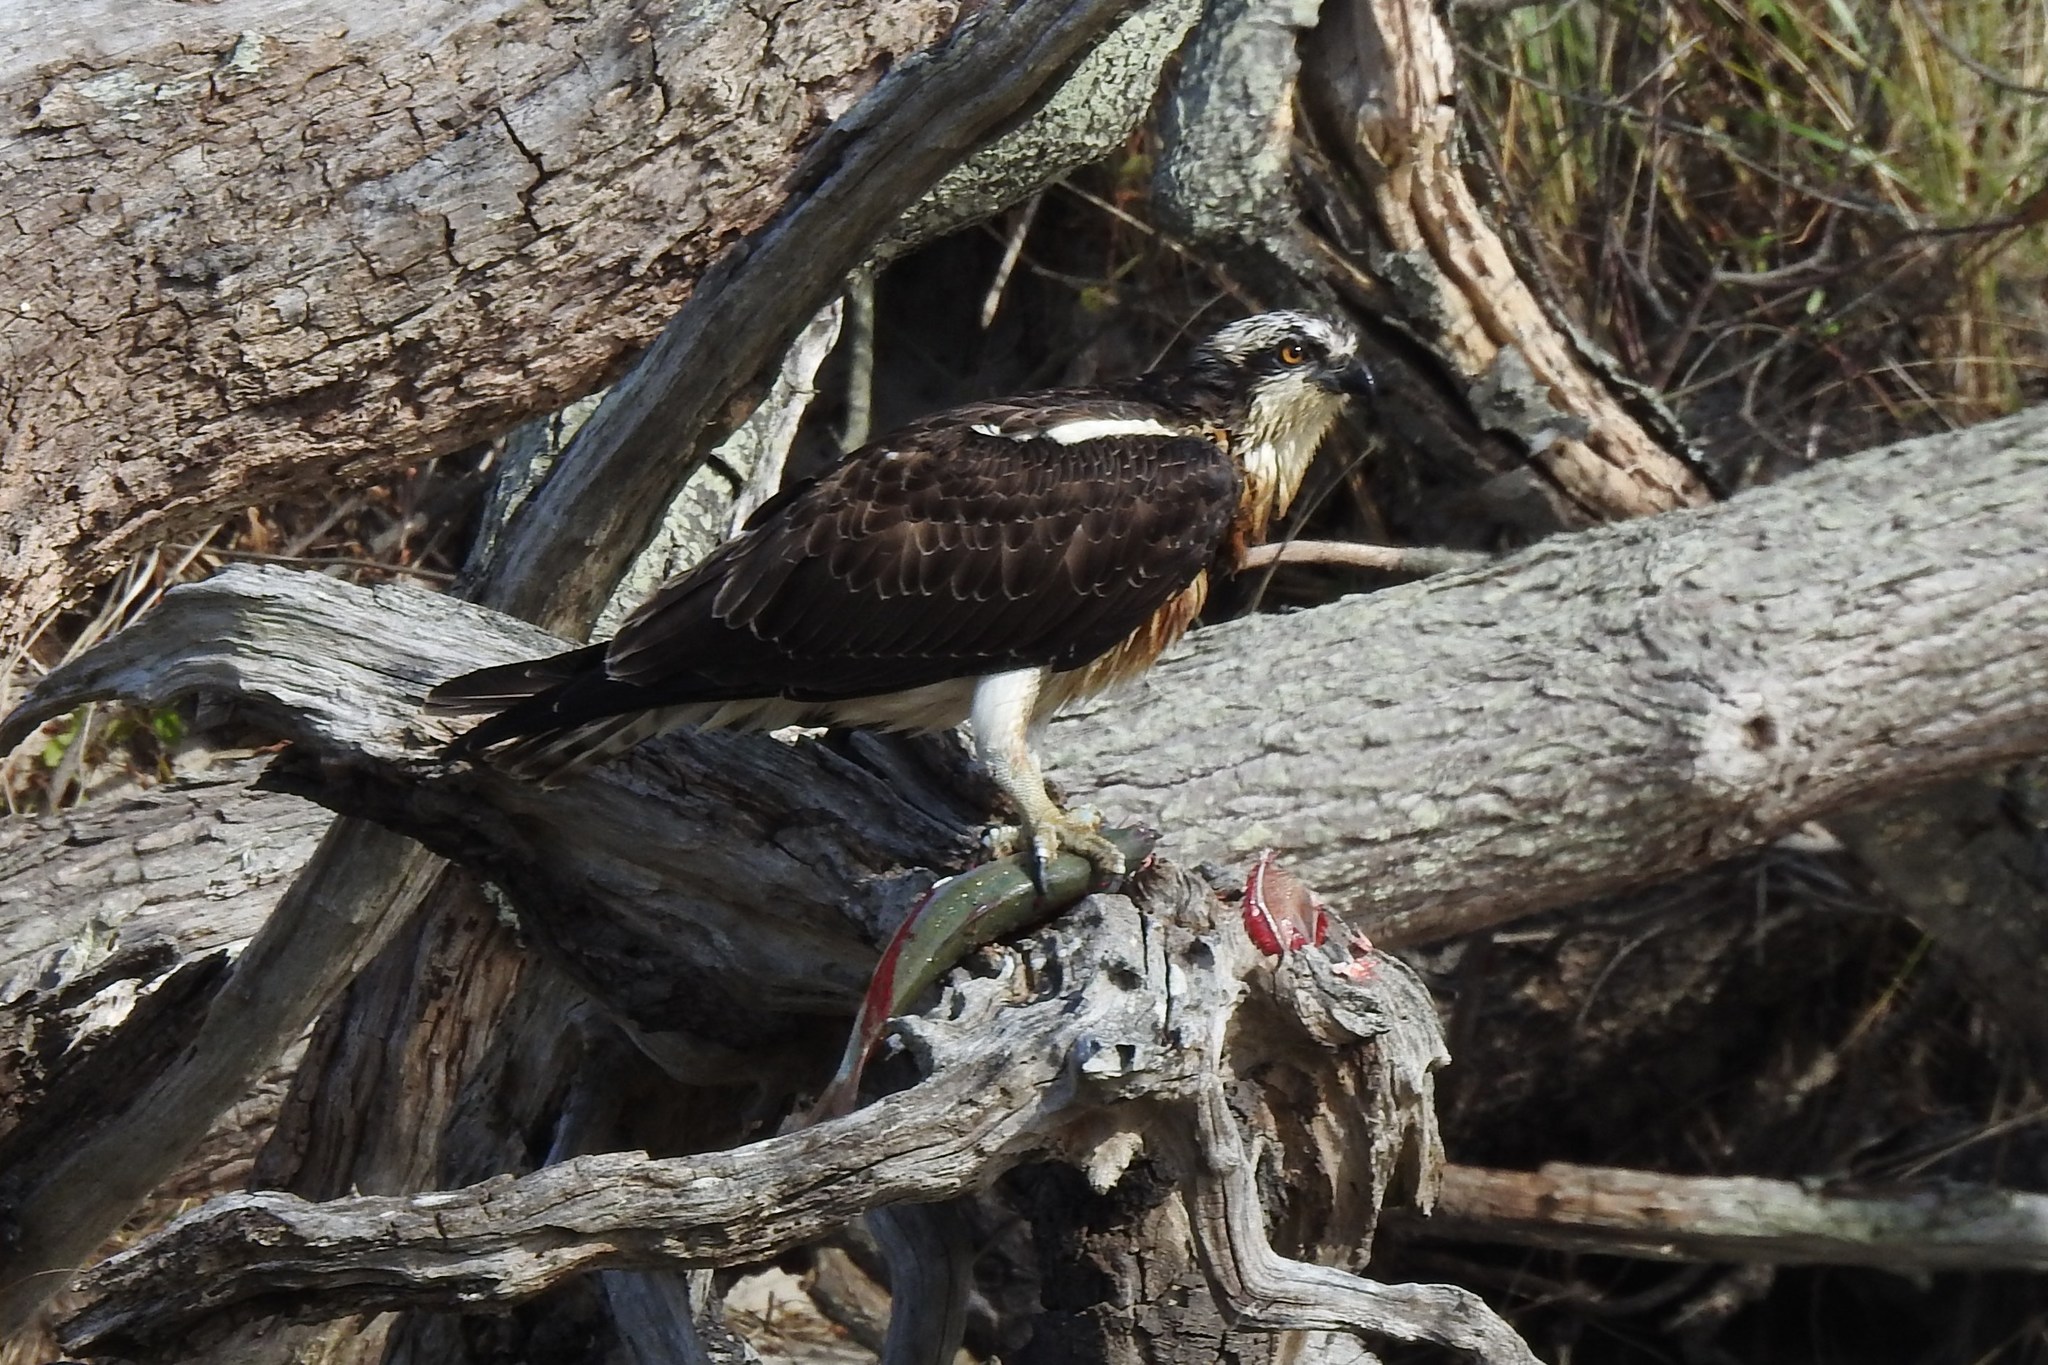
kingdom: Animalia
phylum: Chordata
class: Aves
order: Accipitriformes
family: Pandionidae
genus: Pandion
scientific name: Pandion haliaetus
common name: Osprey
